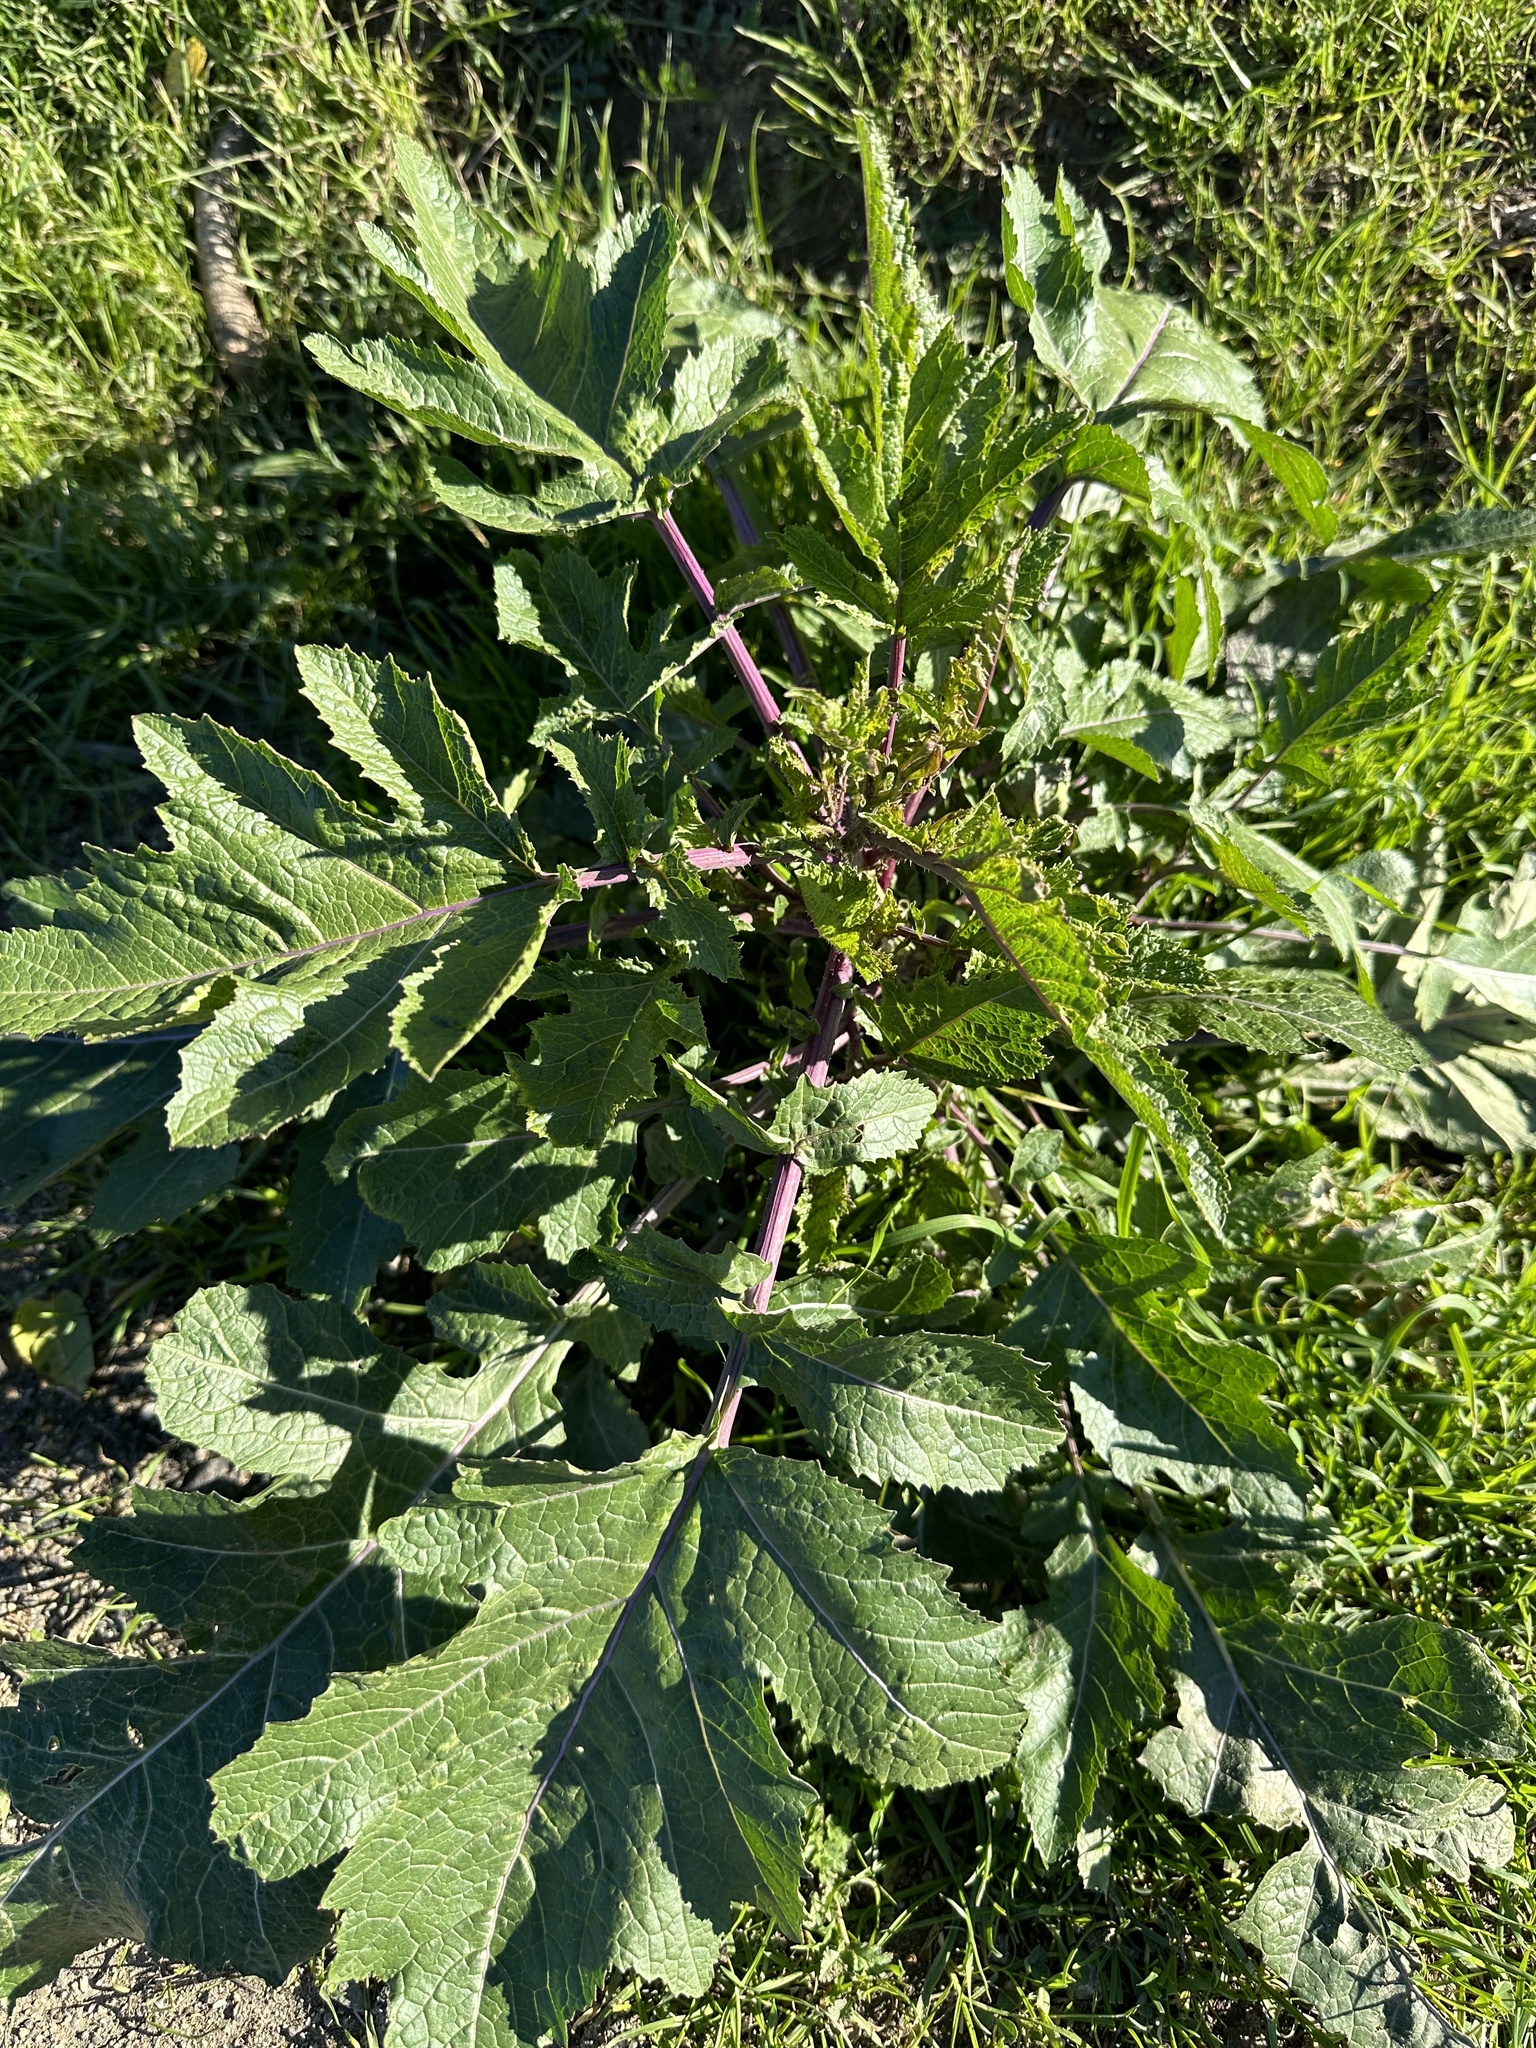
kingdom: Plantae
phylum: Tracheophyta
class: Magnoliopsida
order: Brassicales
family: Brassicaceae
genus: Brassica
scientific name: Brassica nigra
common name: Black mustard
